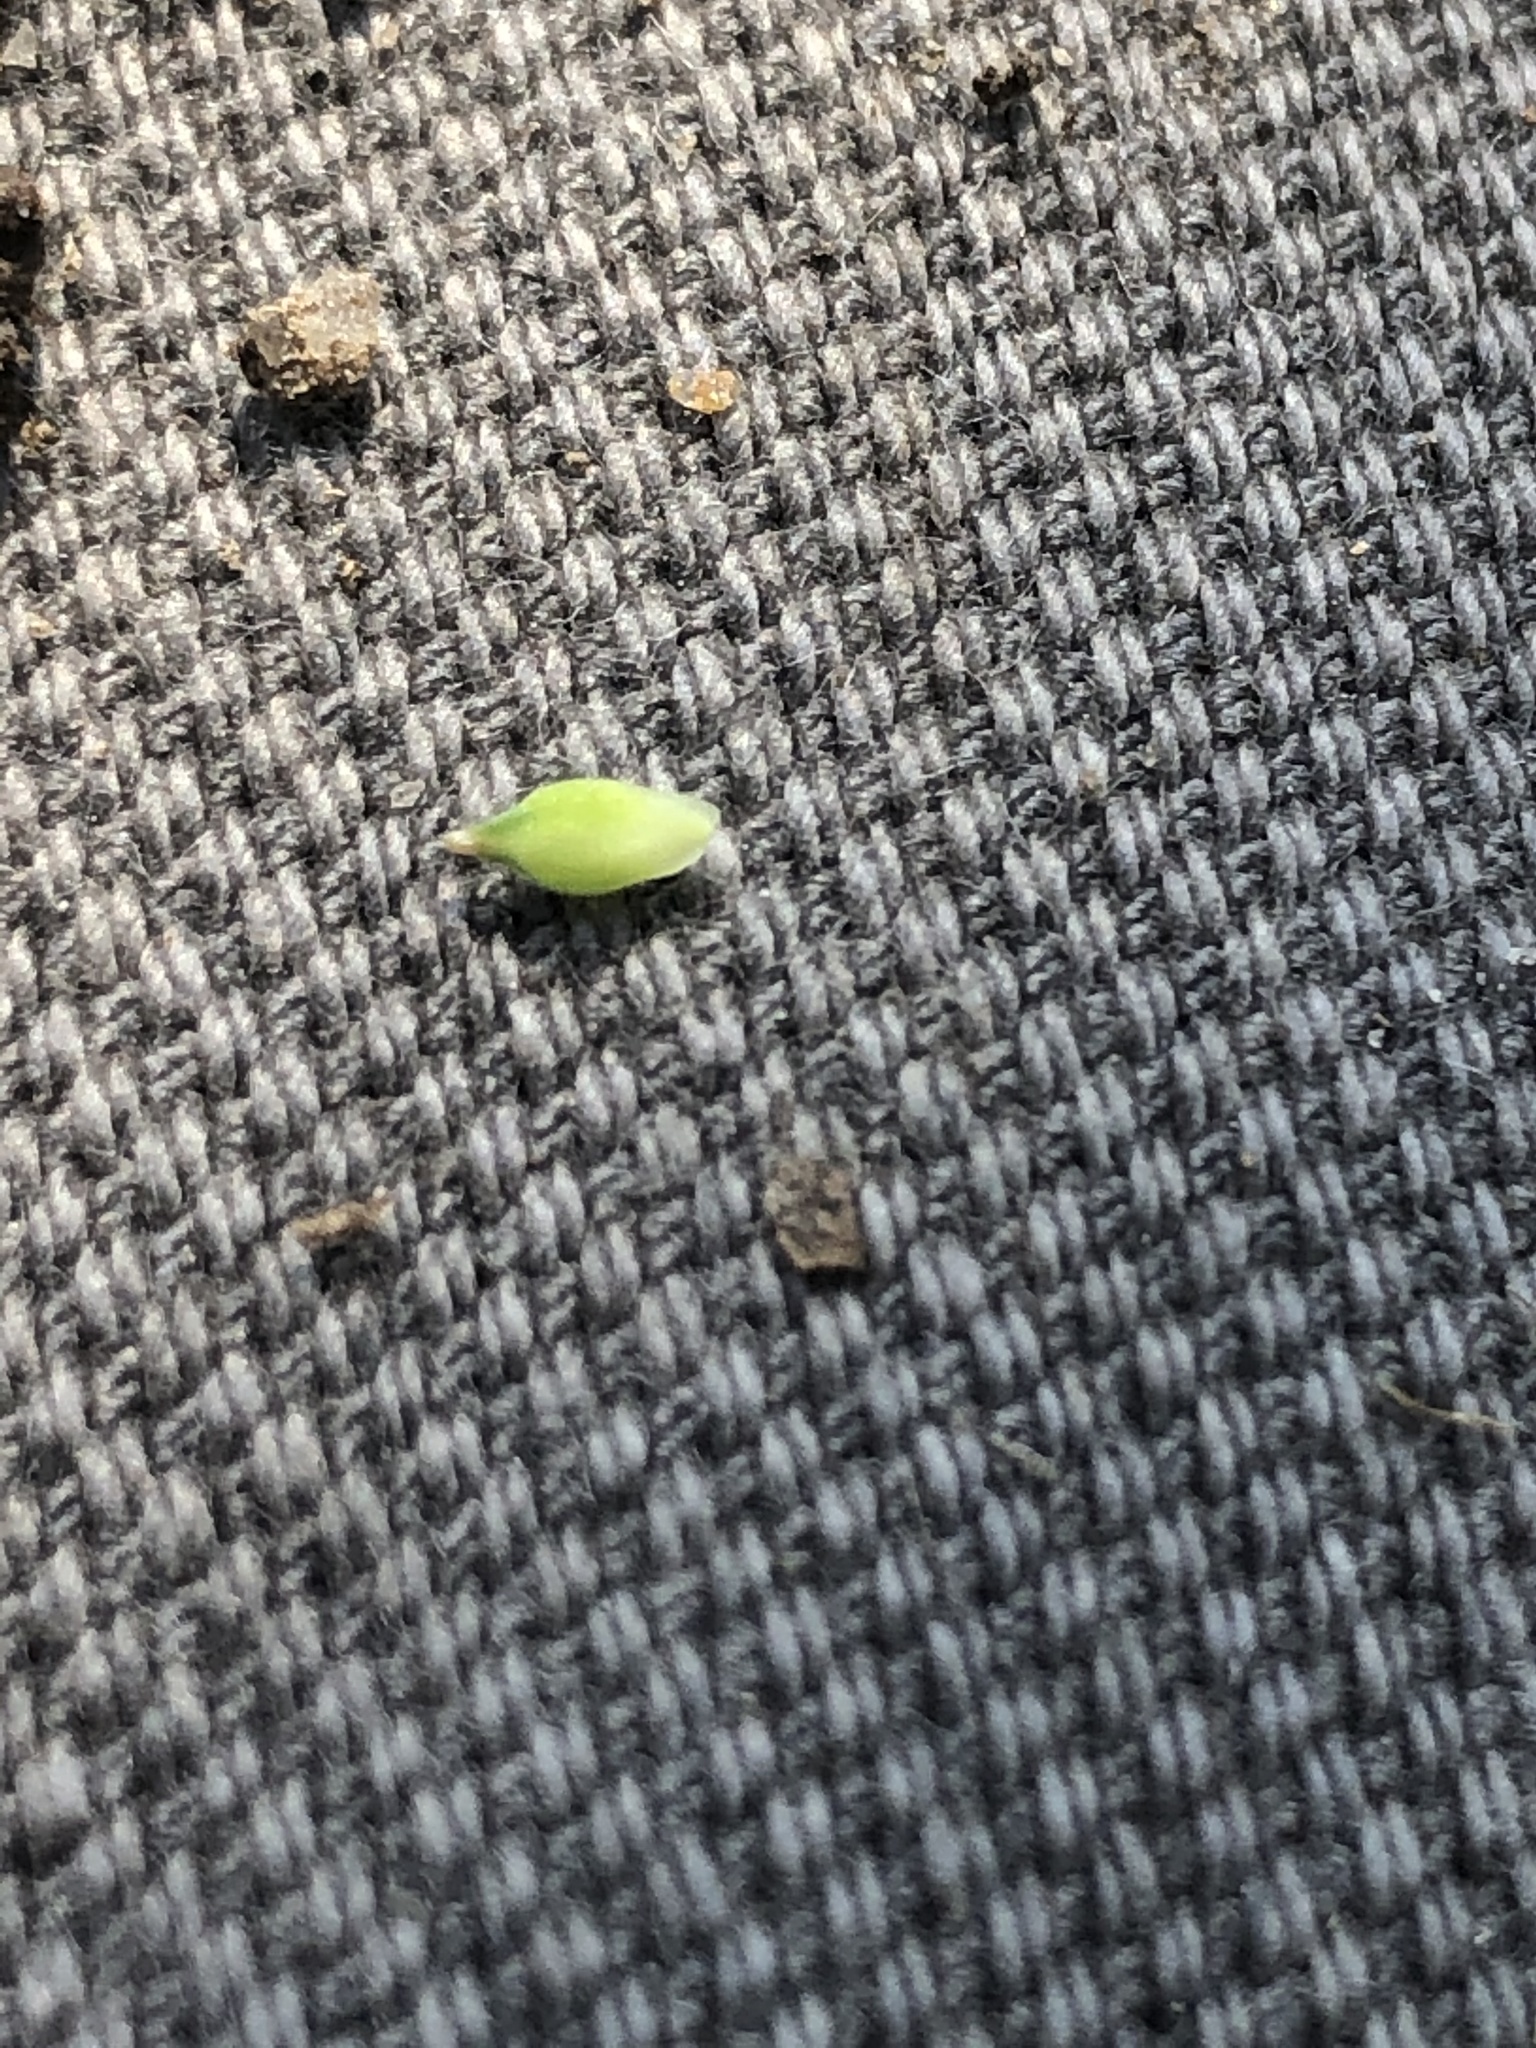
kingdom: Plantae
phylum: Tracheophyta
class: Liliopsida
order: Poales
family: Cyperaceae
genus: Carex
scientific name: Carex pensylvanica
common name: Common oak sedge
